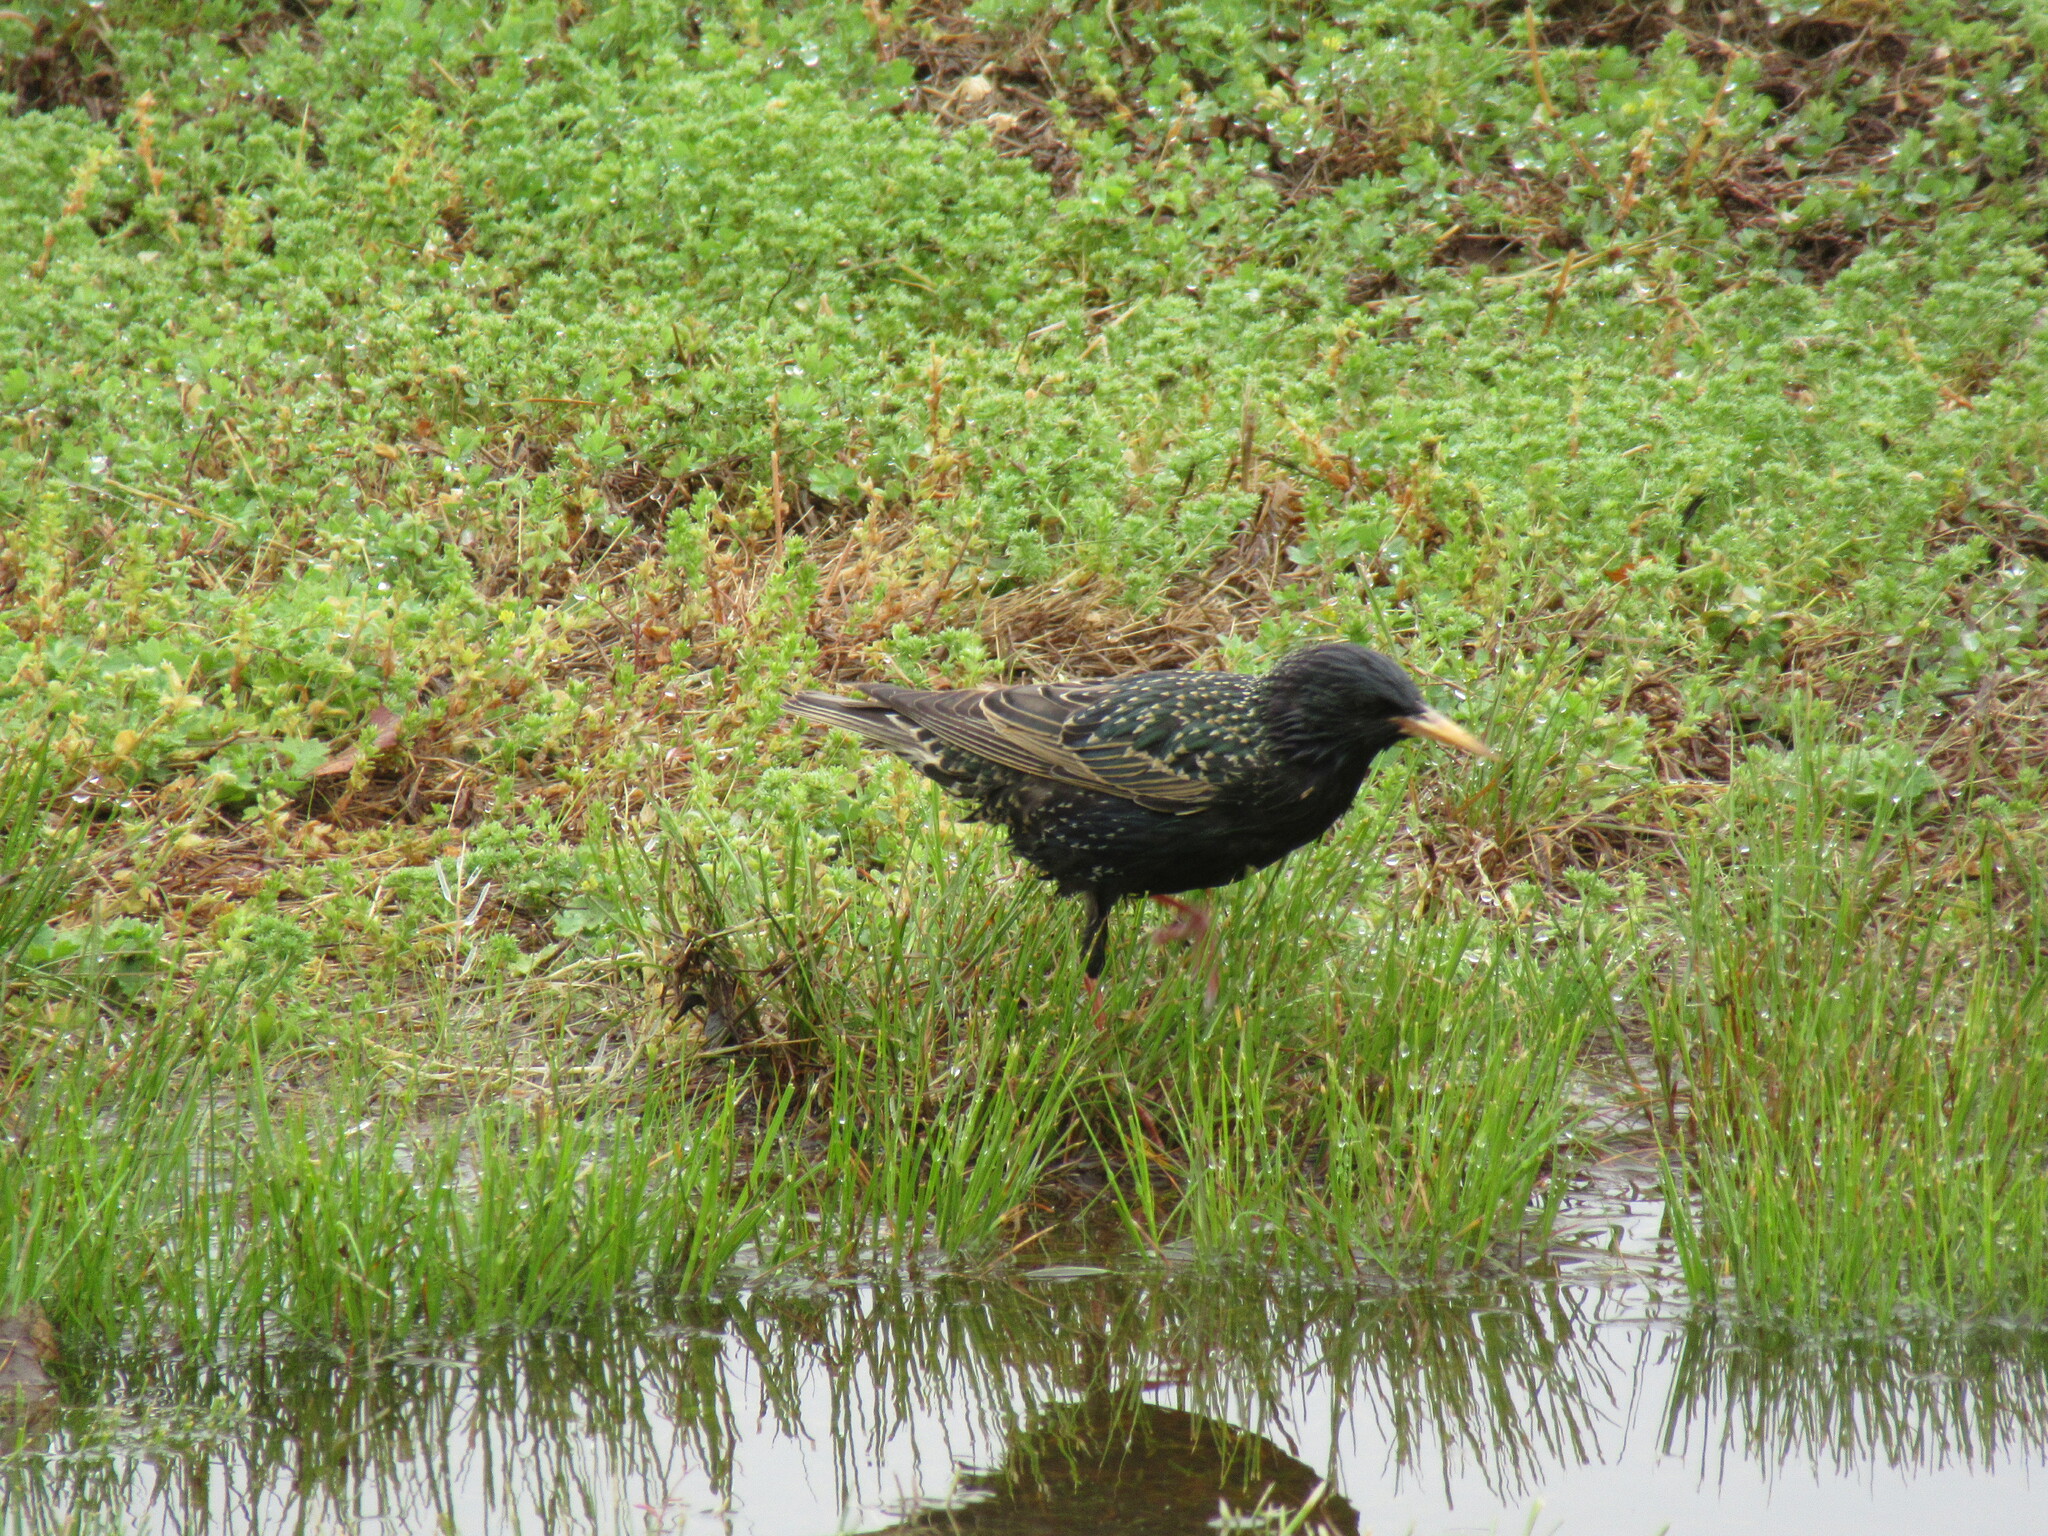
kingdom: Animalia
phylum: Chordata
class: Aves
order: Passeriformes
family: Sturnidae
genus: Sturnus
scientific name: Sturnus vulgaris
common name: Common starling
